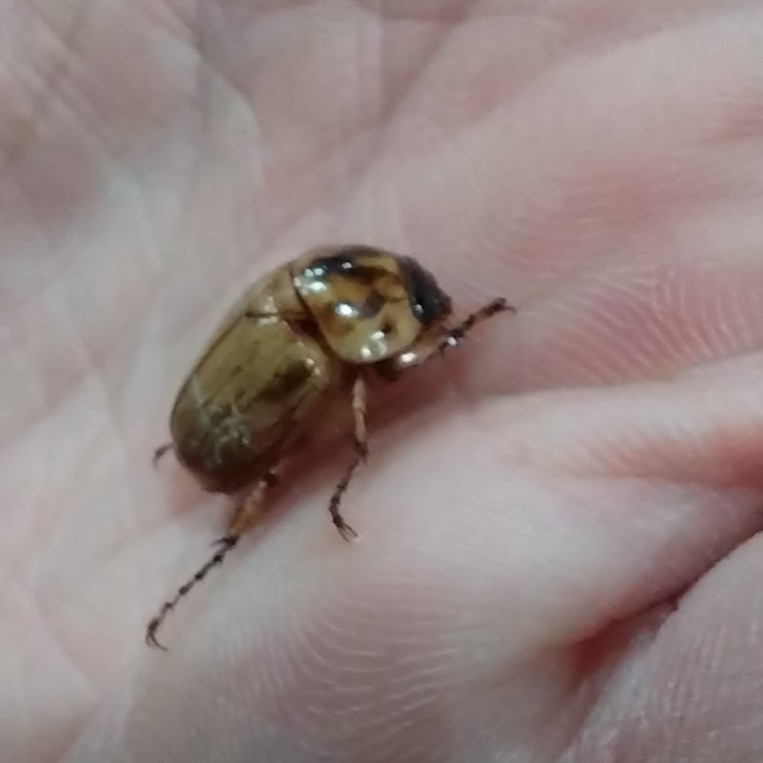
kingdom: Animalia
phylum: Arthropoda
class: Insecta
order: Coleoptera
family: Scarabaeidae
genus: Cyclocephala
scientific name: Cyclocephala signaticollis
